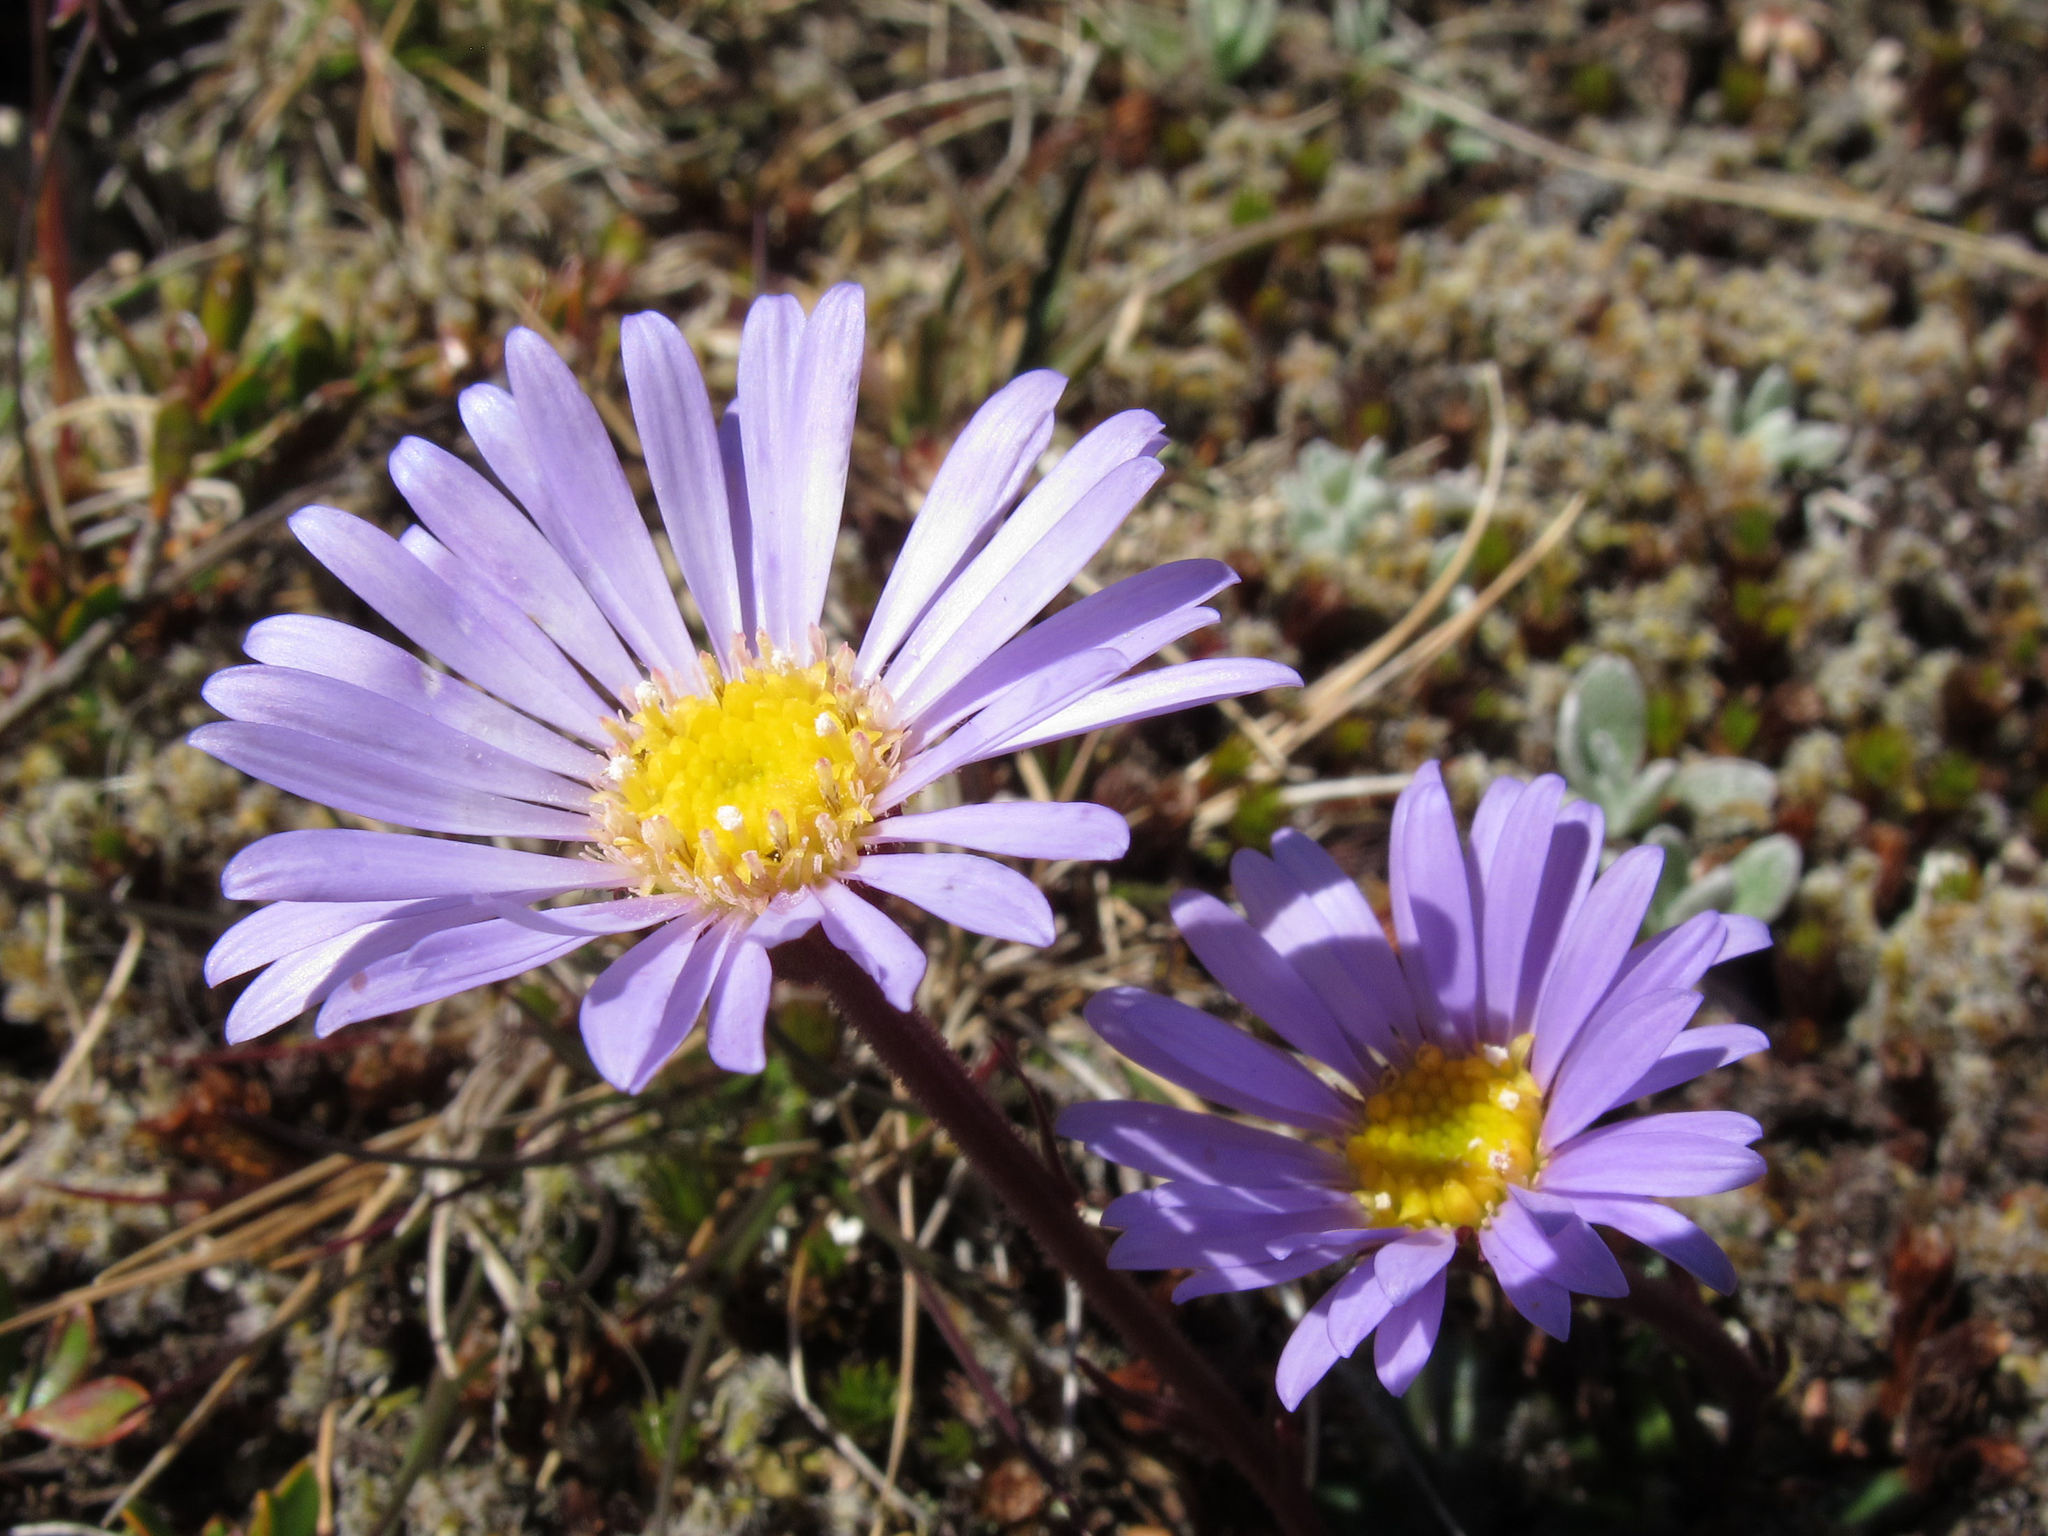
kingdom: Plantae
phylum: Tracheophyta
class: Magnoliopsida
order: Asterales
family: Asteraceae
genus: Brachyscome
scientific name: Brachyscome
